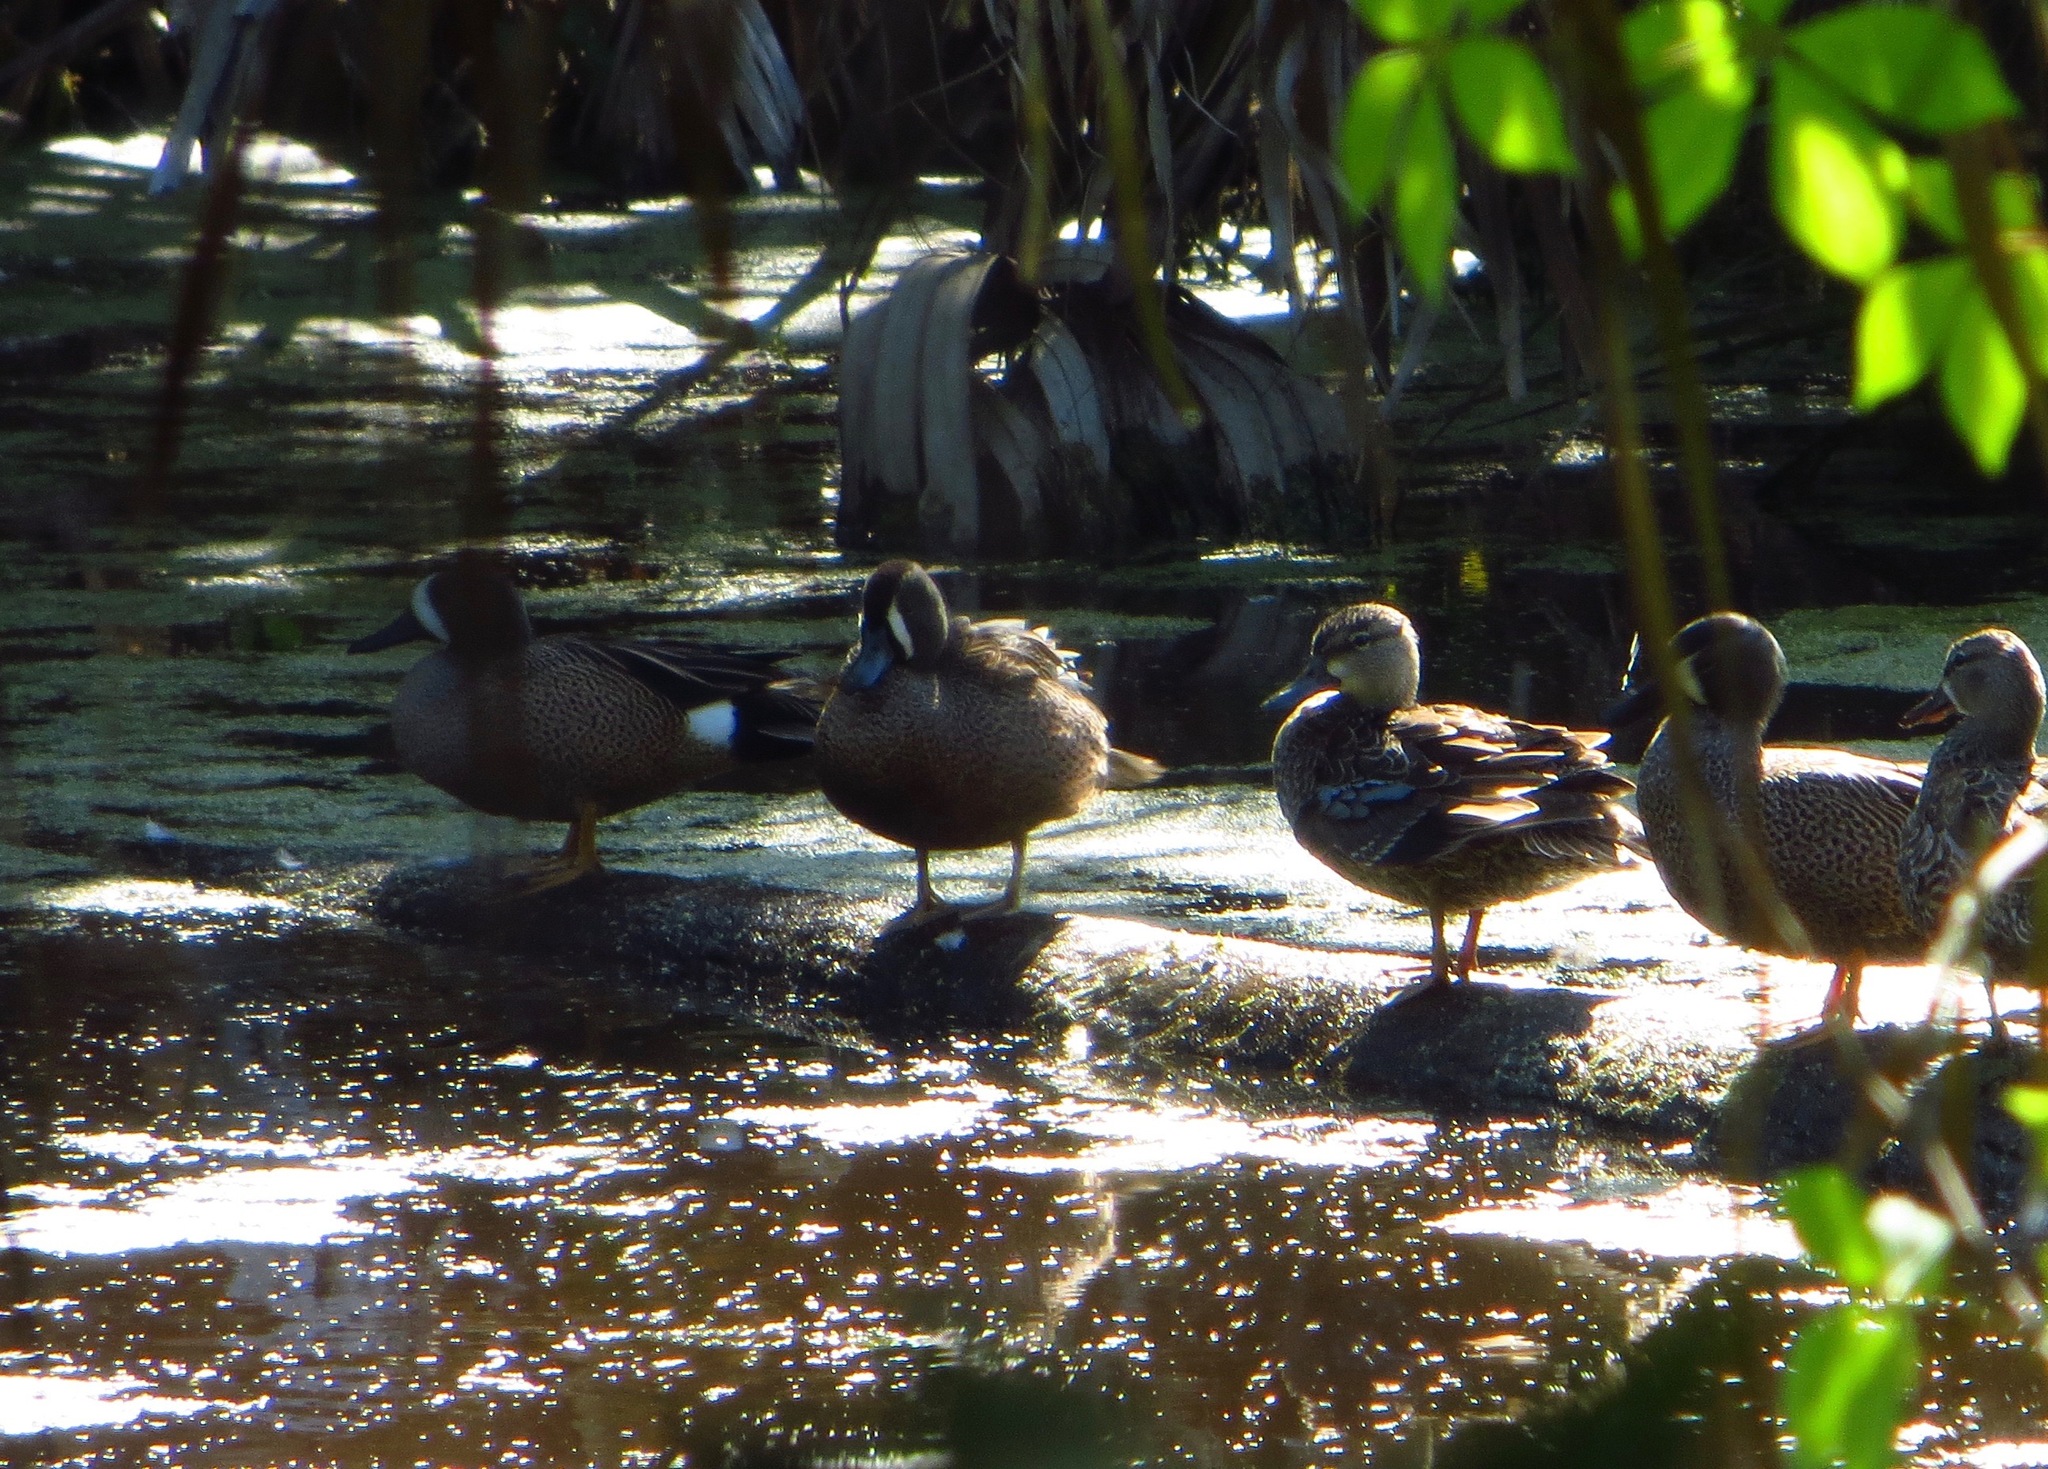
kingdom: Animalia
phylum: Chordata
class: Aves
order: Anseriformes
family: Anatidae
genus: Spatula
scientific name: Spatula discors
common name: Blue-winged teal
